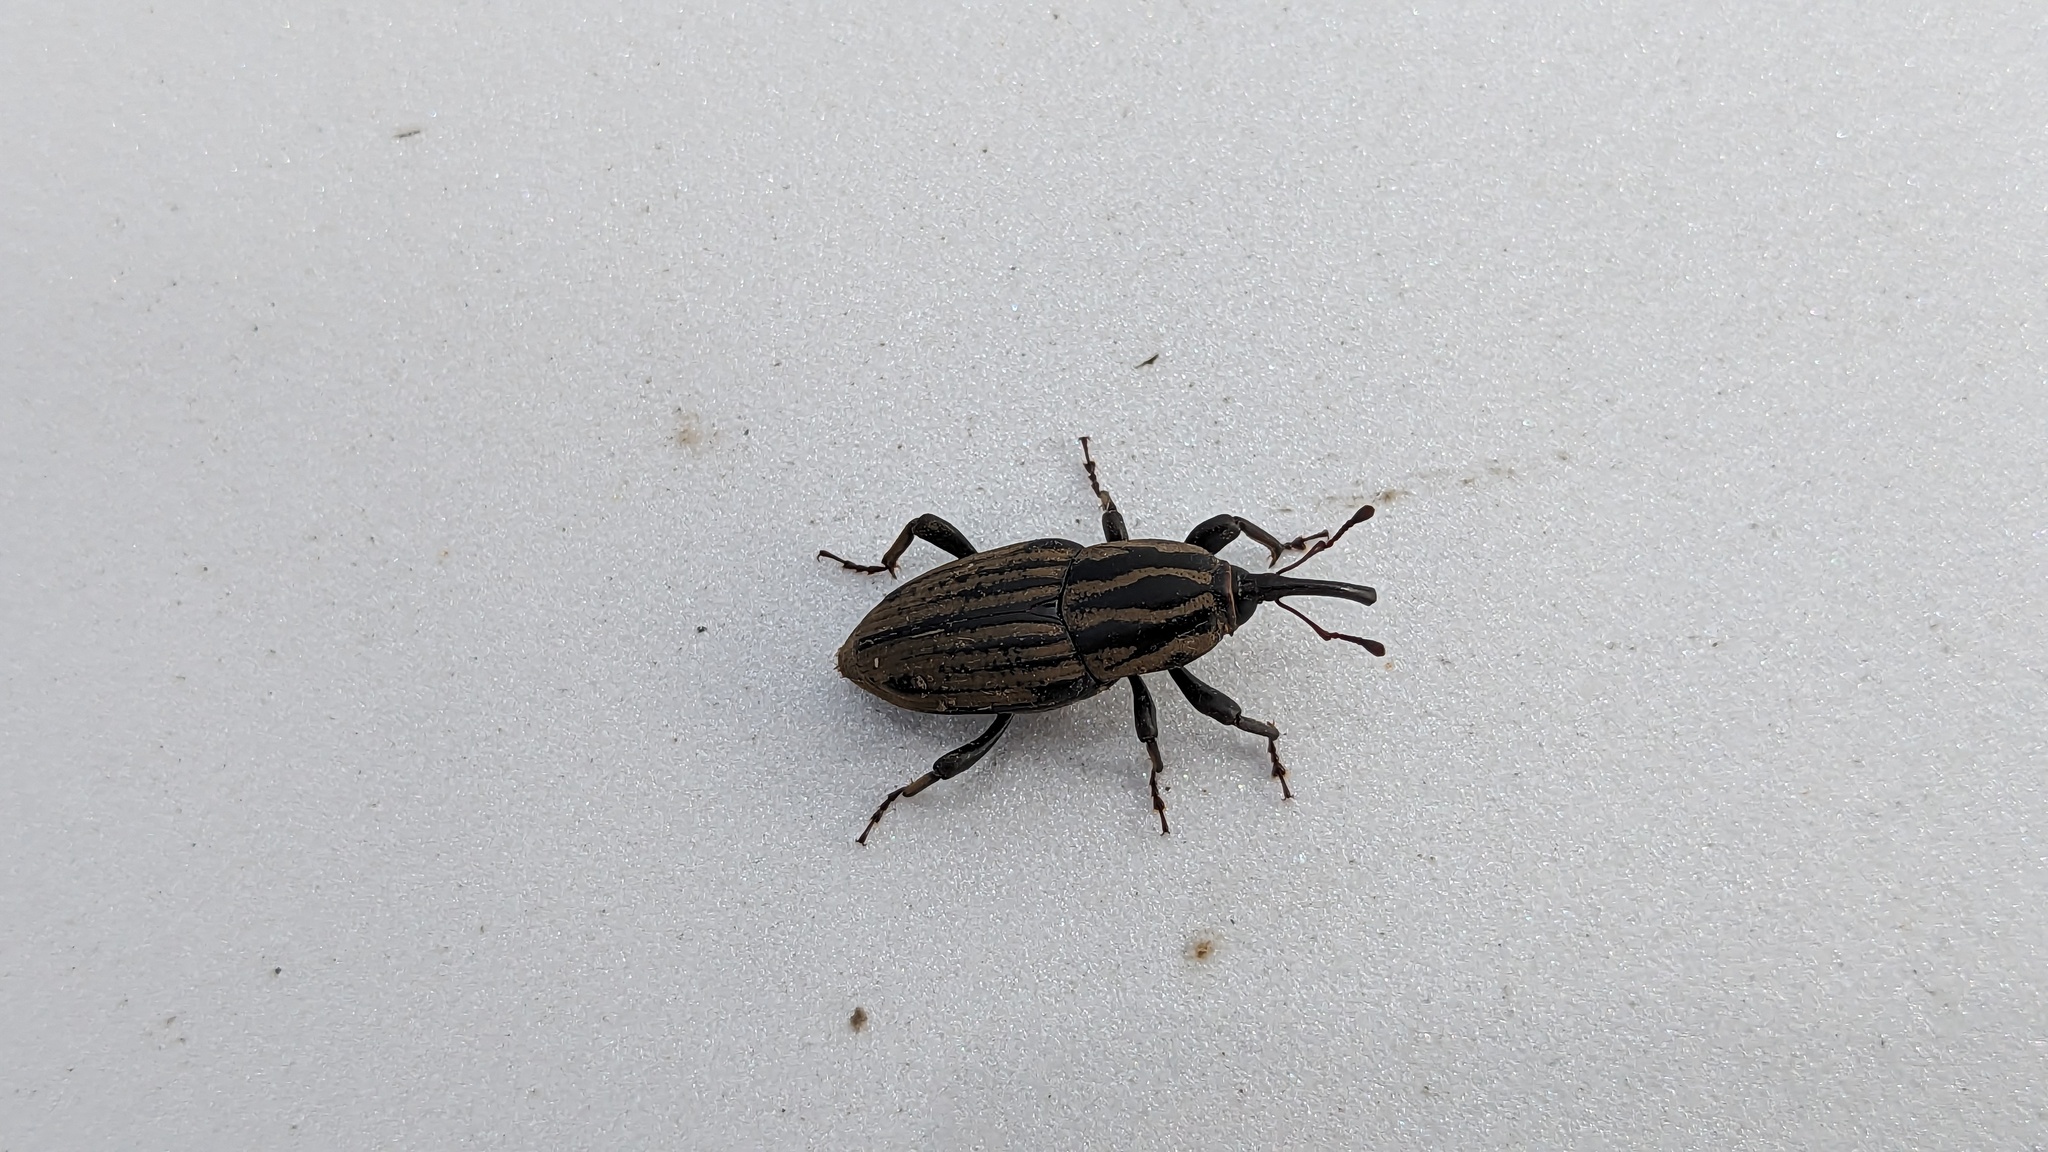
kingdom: Animalia
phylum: Arthropoda
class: Insecta
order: Coleoptera
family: Dryophthoridae
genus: Sphenophorus
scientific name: Sphenophorus australis
